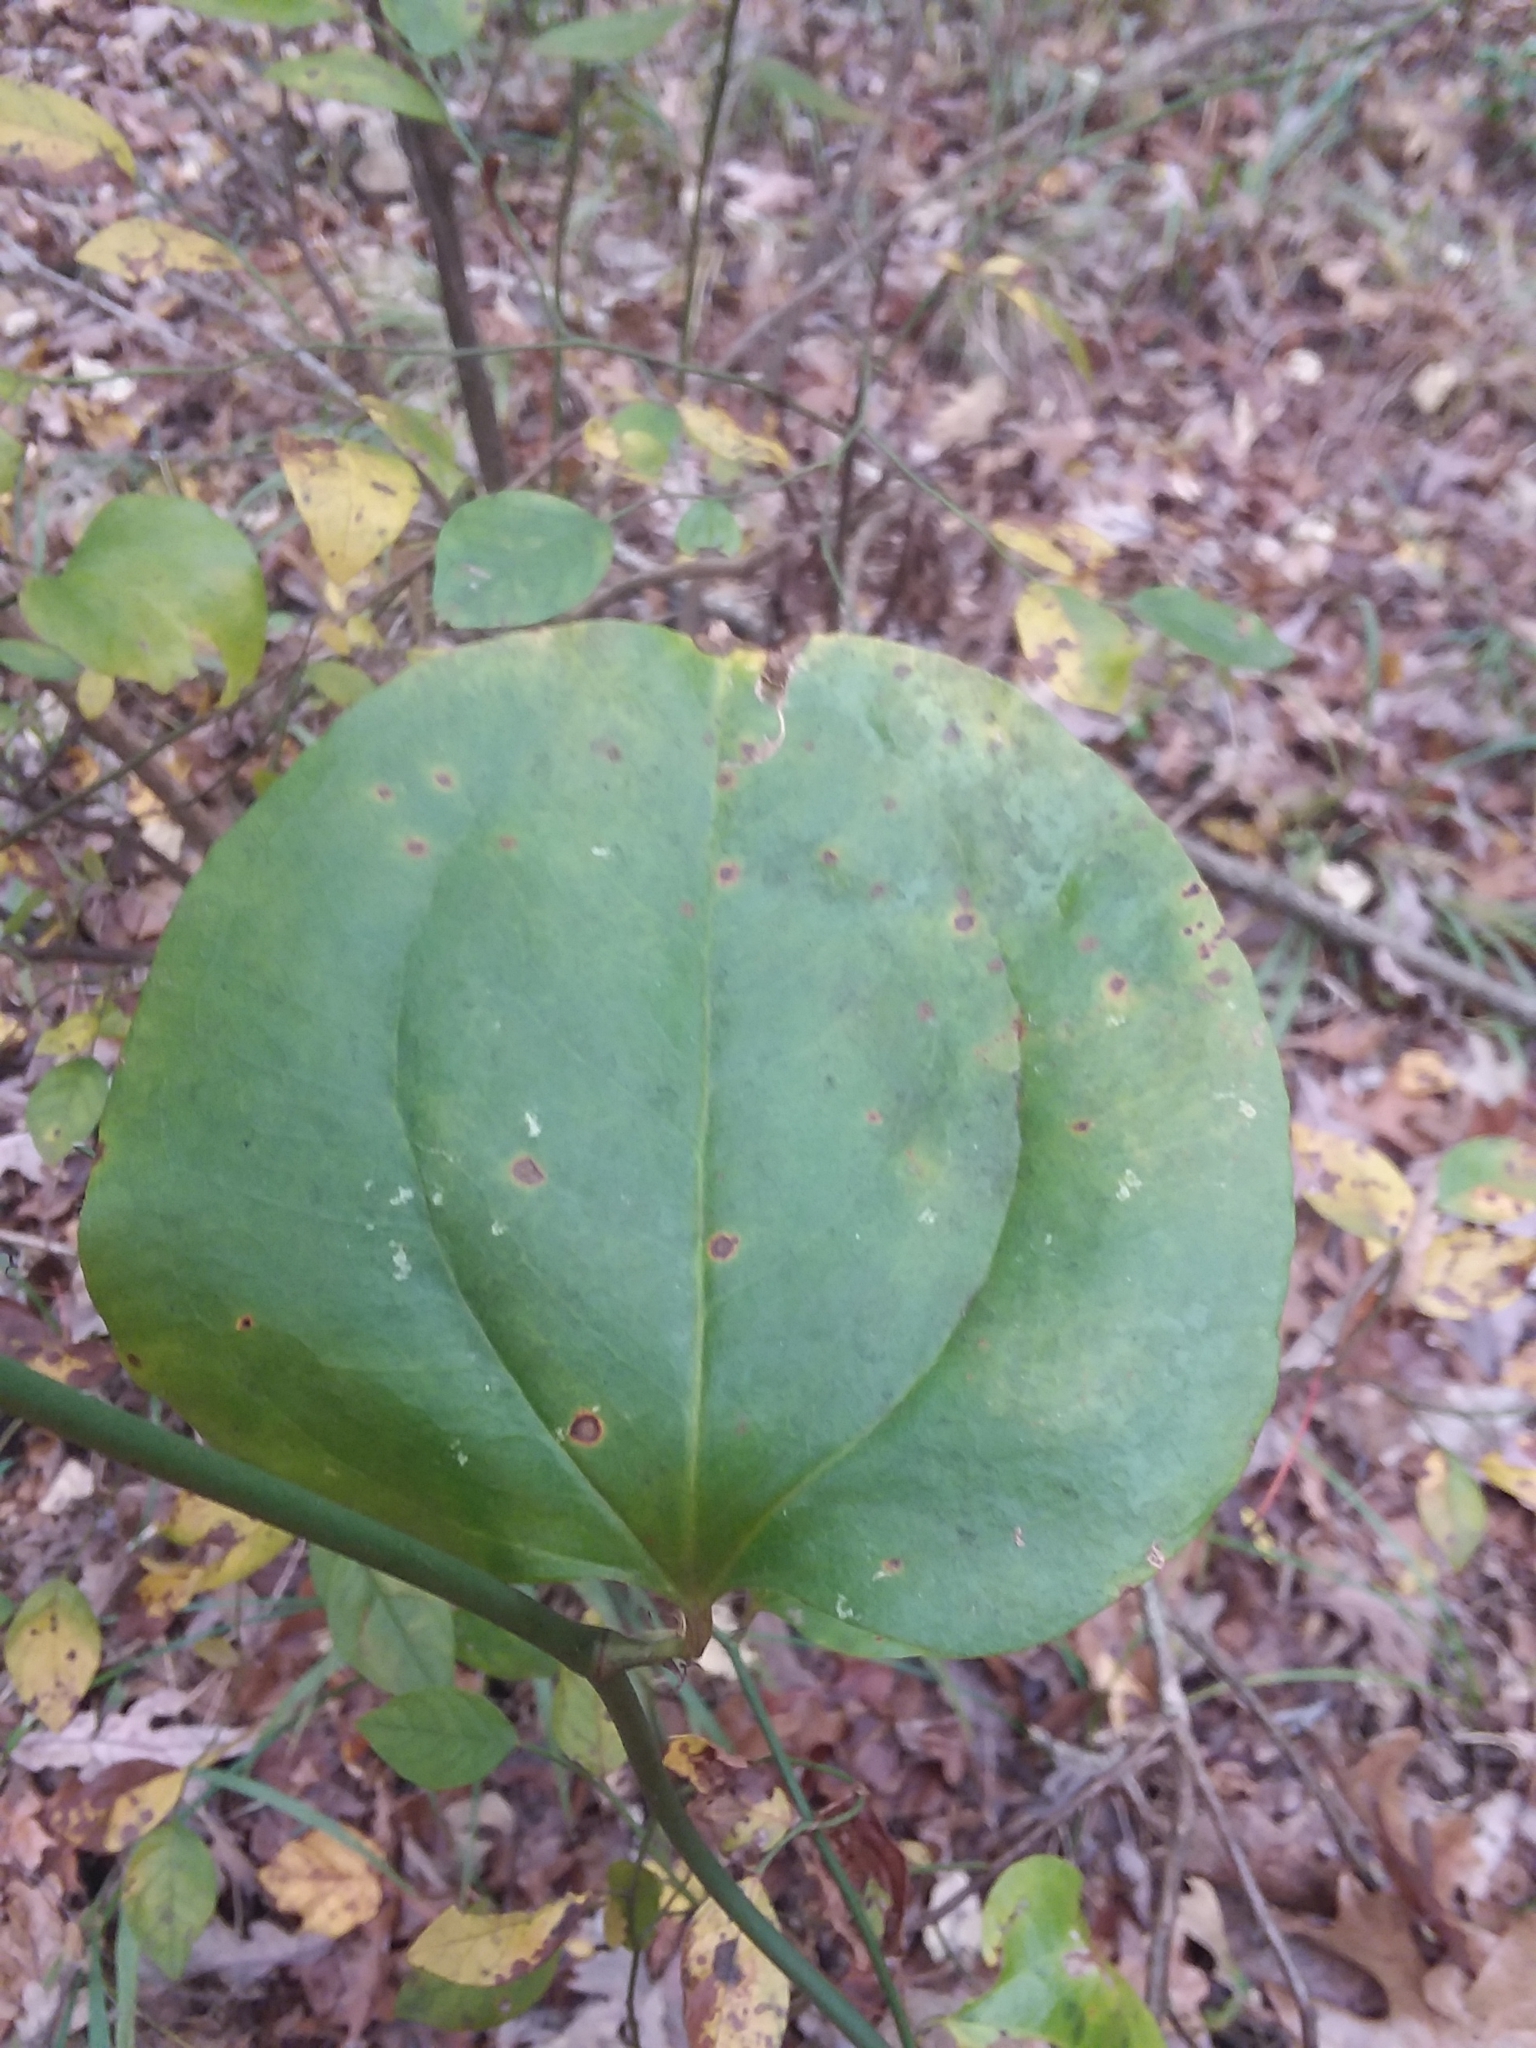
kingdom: Plantae
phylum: Tracheophyta
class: Liliopsida
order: Liliales
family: Smilacaceae
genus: Smilax
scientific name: Smilax rotundifolia
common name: Bullbriar
